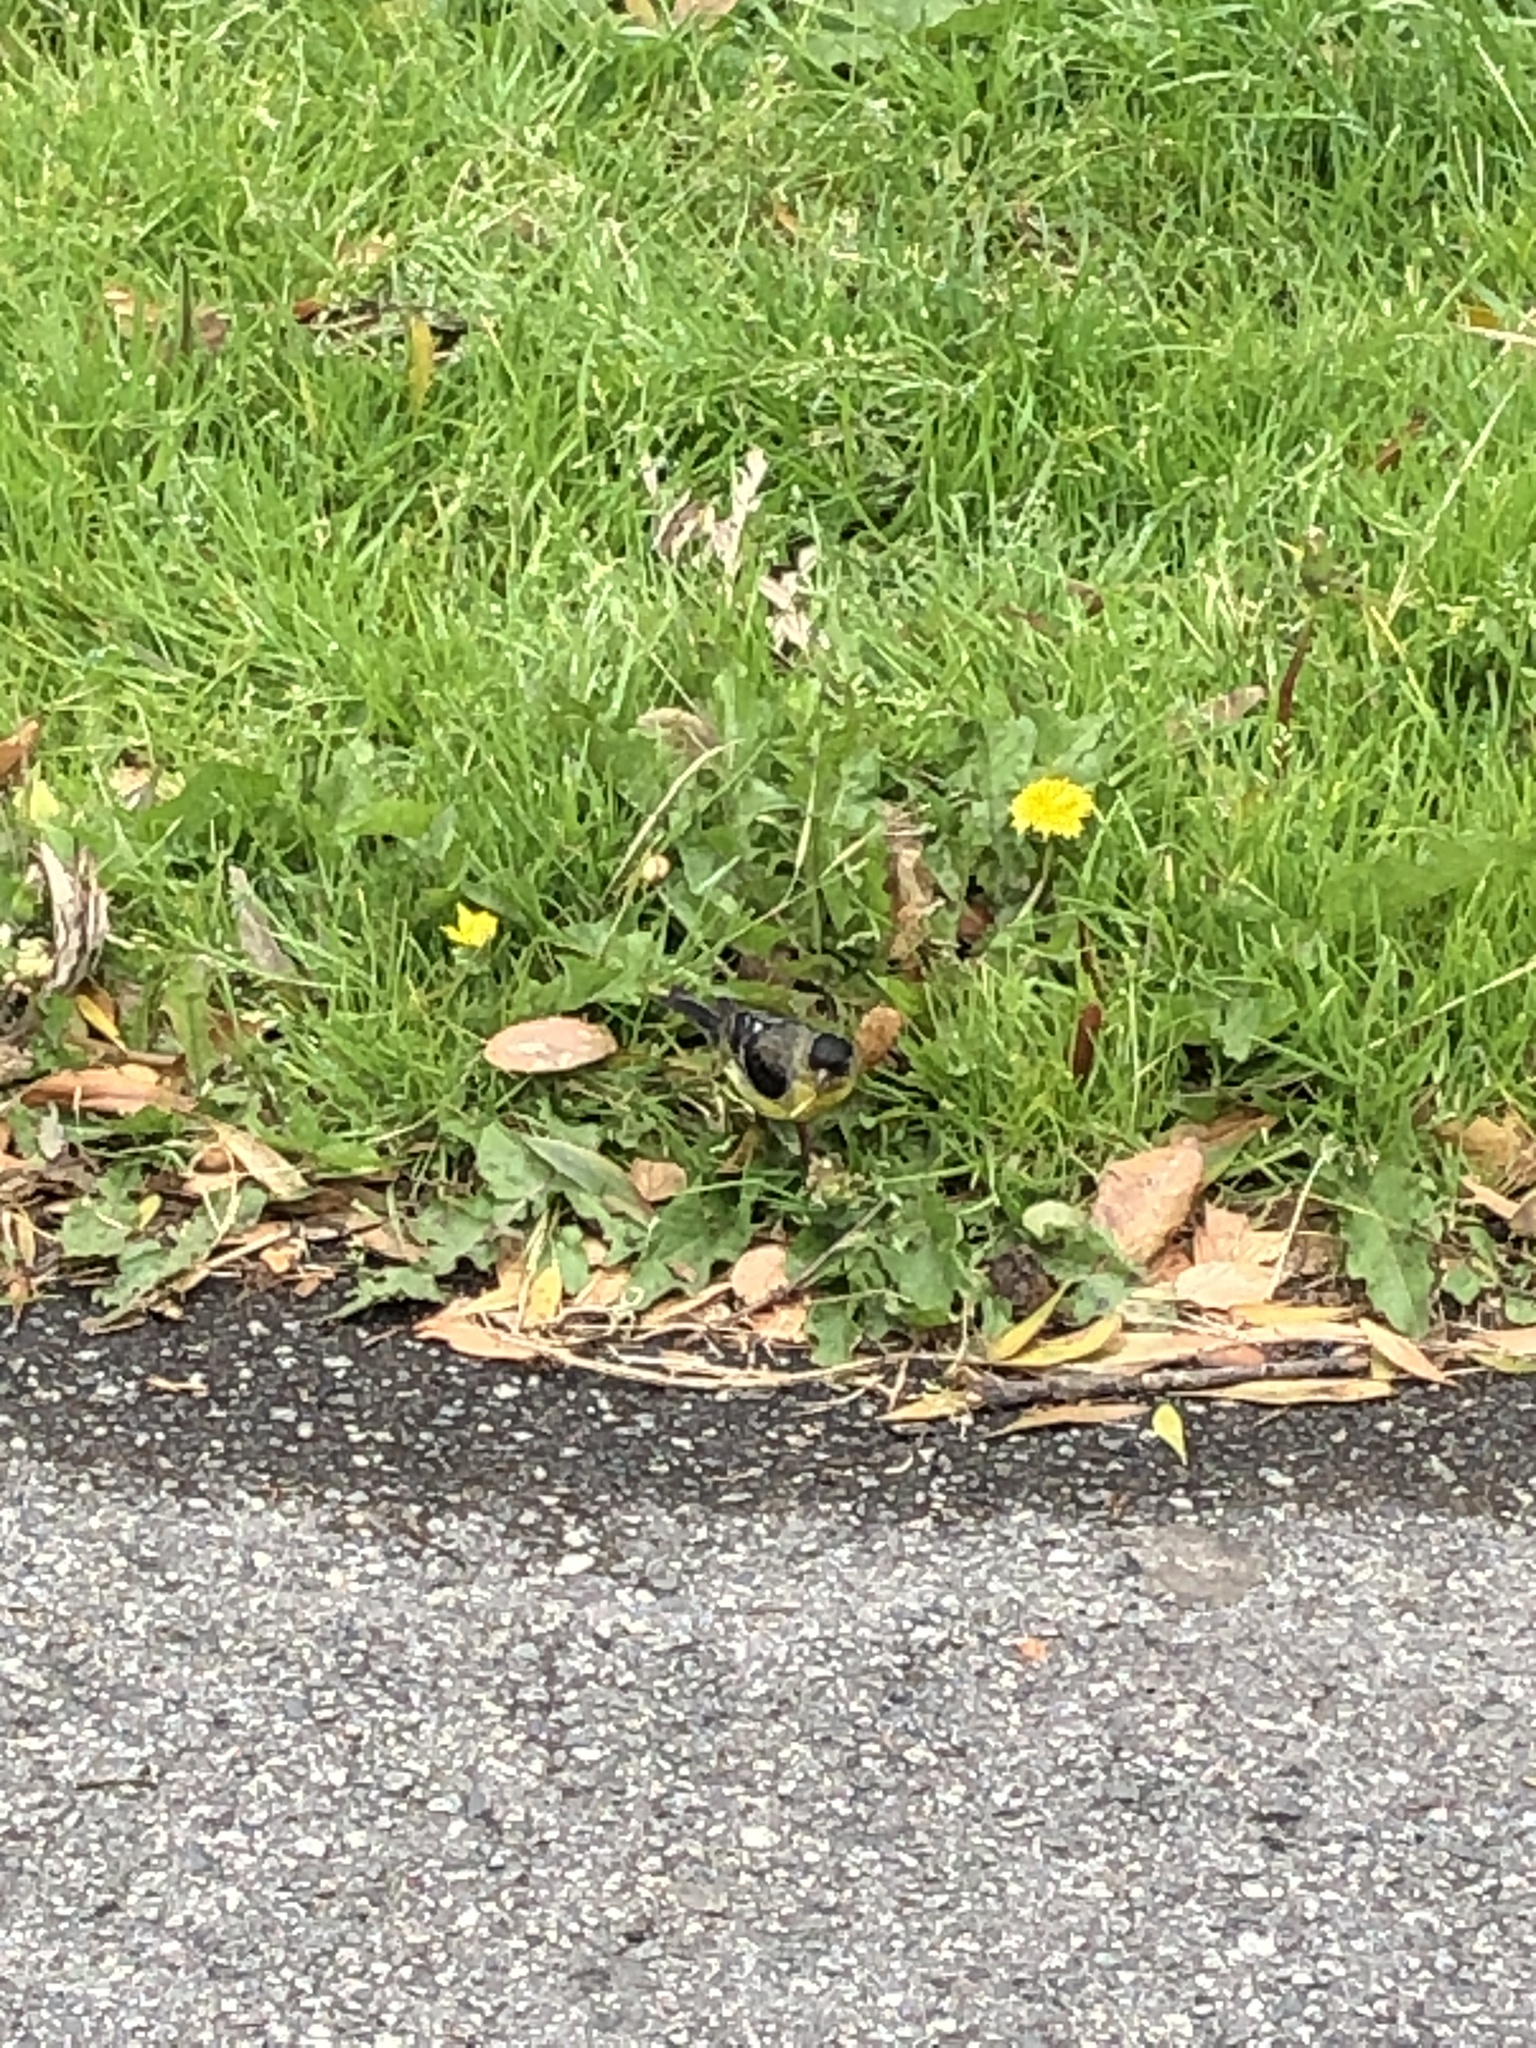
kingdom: Animalia
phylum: Chordata
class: Aves
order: Passeriformes
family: Fringillidae
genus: Spinus
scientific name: Spinus psaltria
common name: Lesser goldfinch
